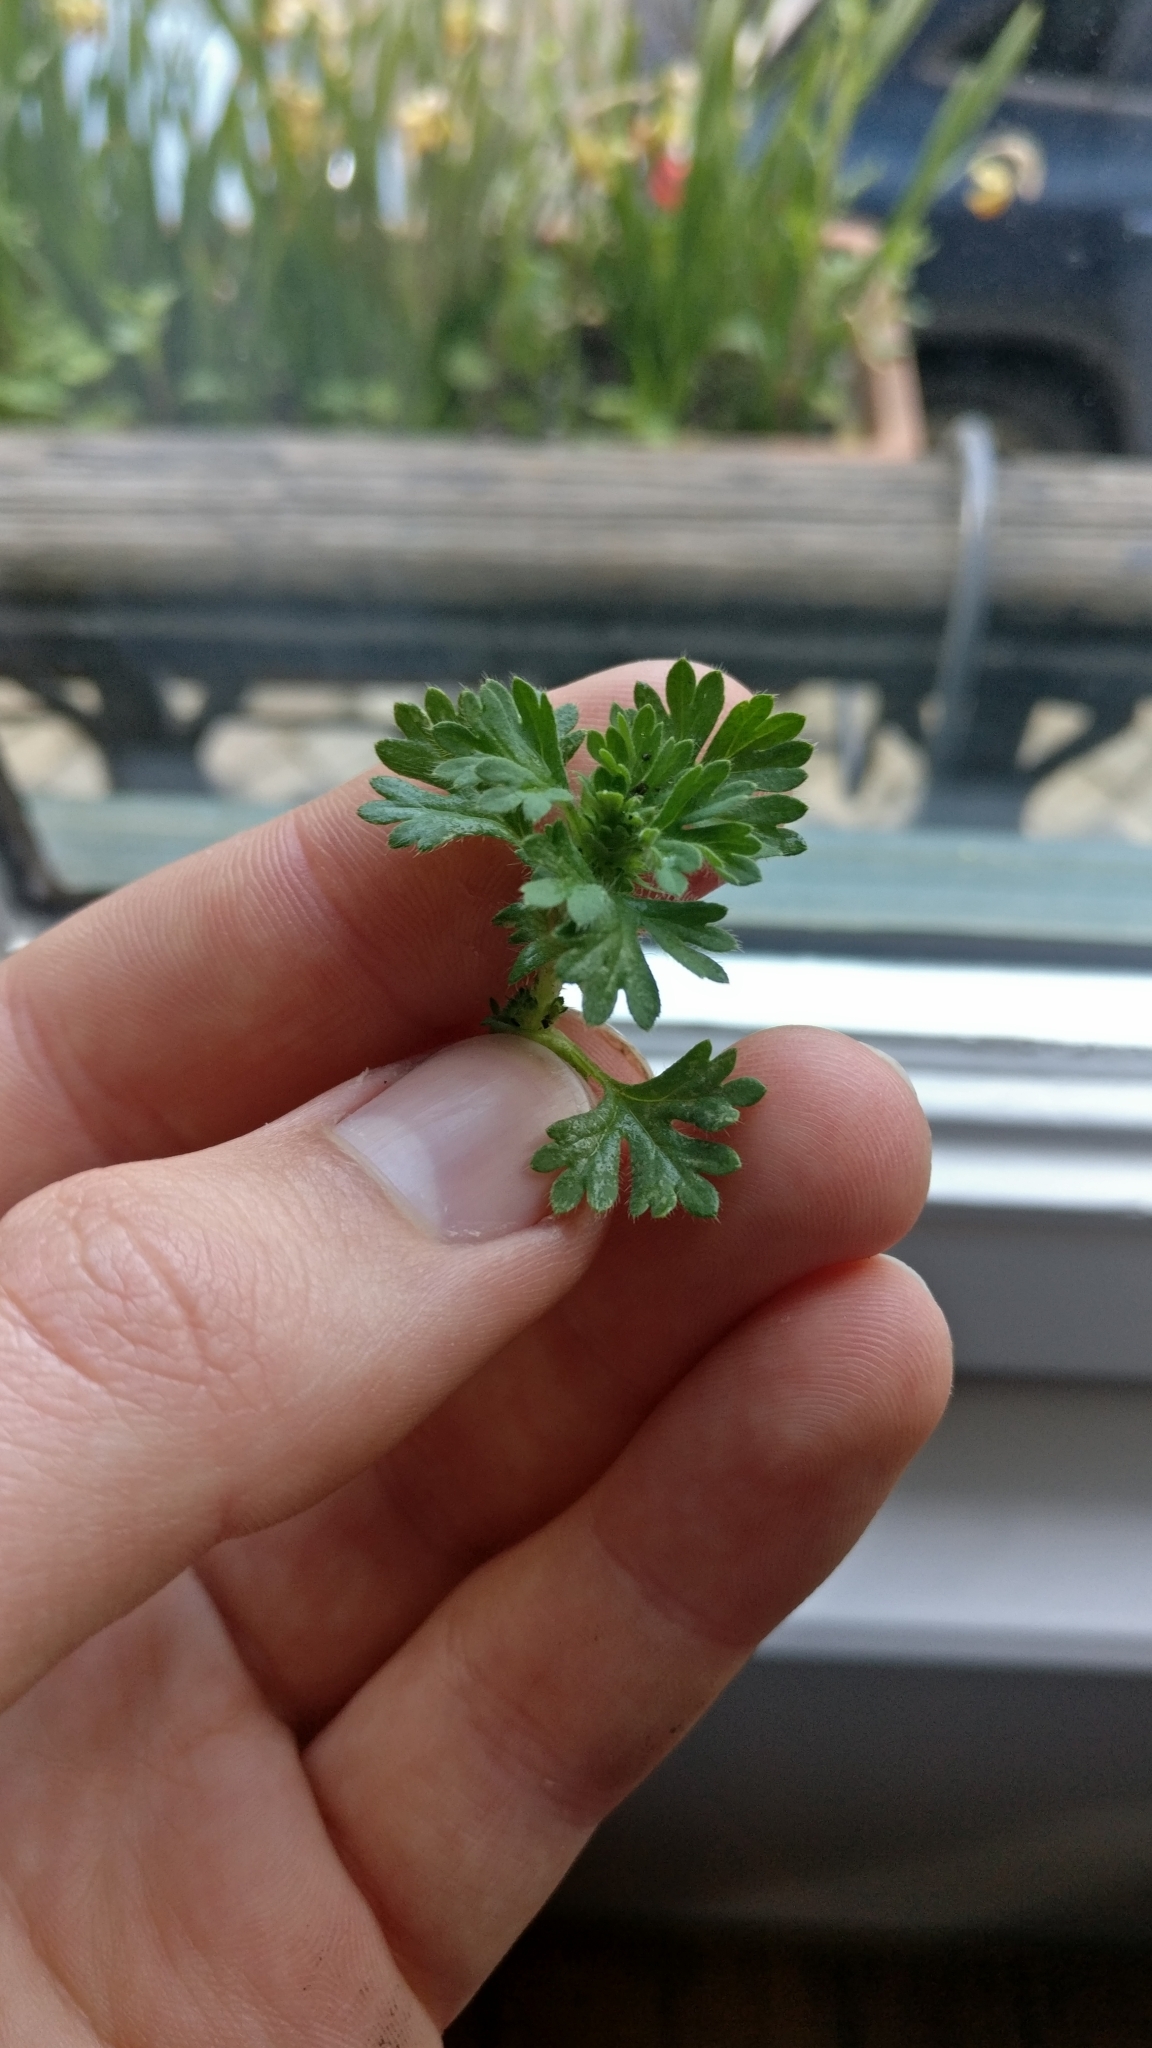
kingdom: Plantae
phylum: Tracheophyta
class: Magnoliopsida
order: Rosales
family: Rosaceae
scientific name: Rosaceae
